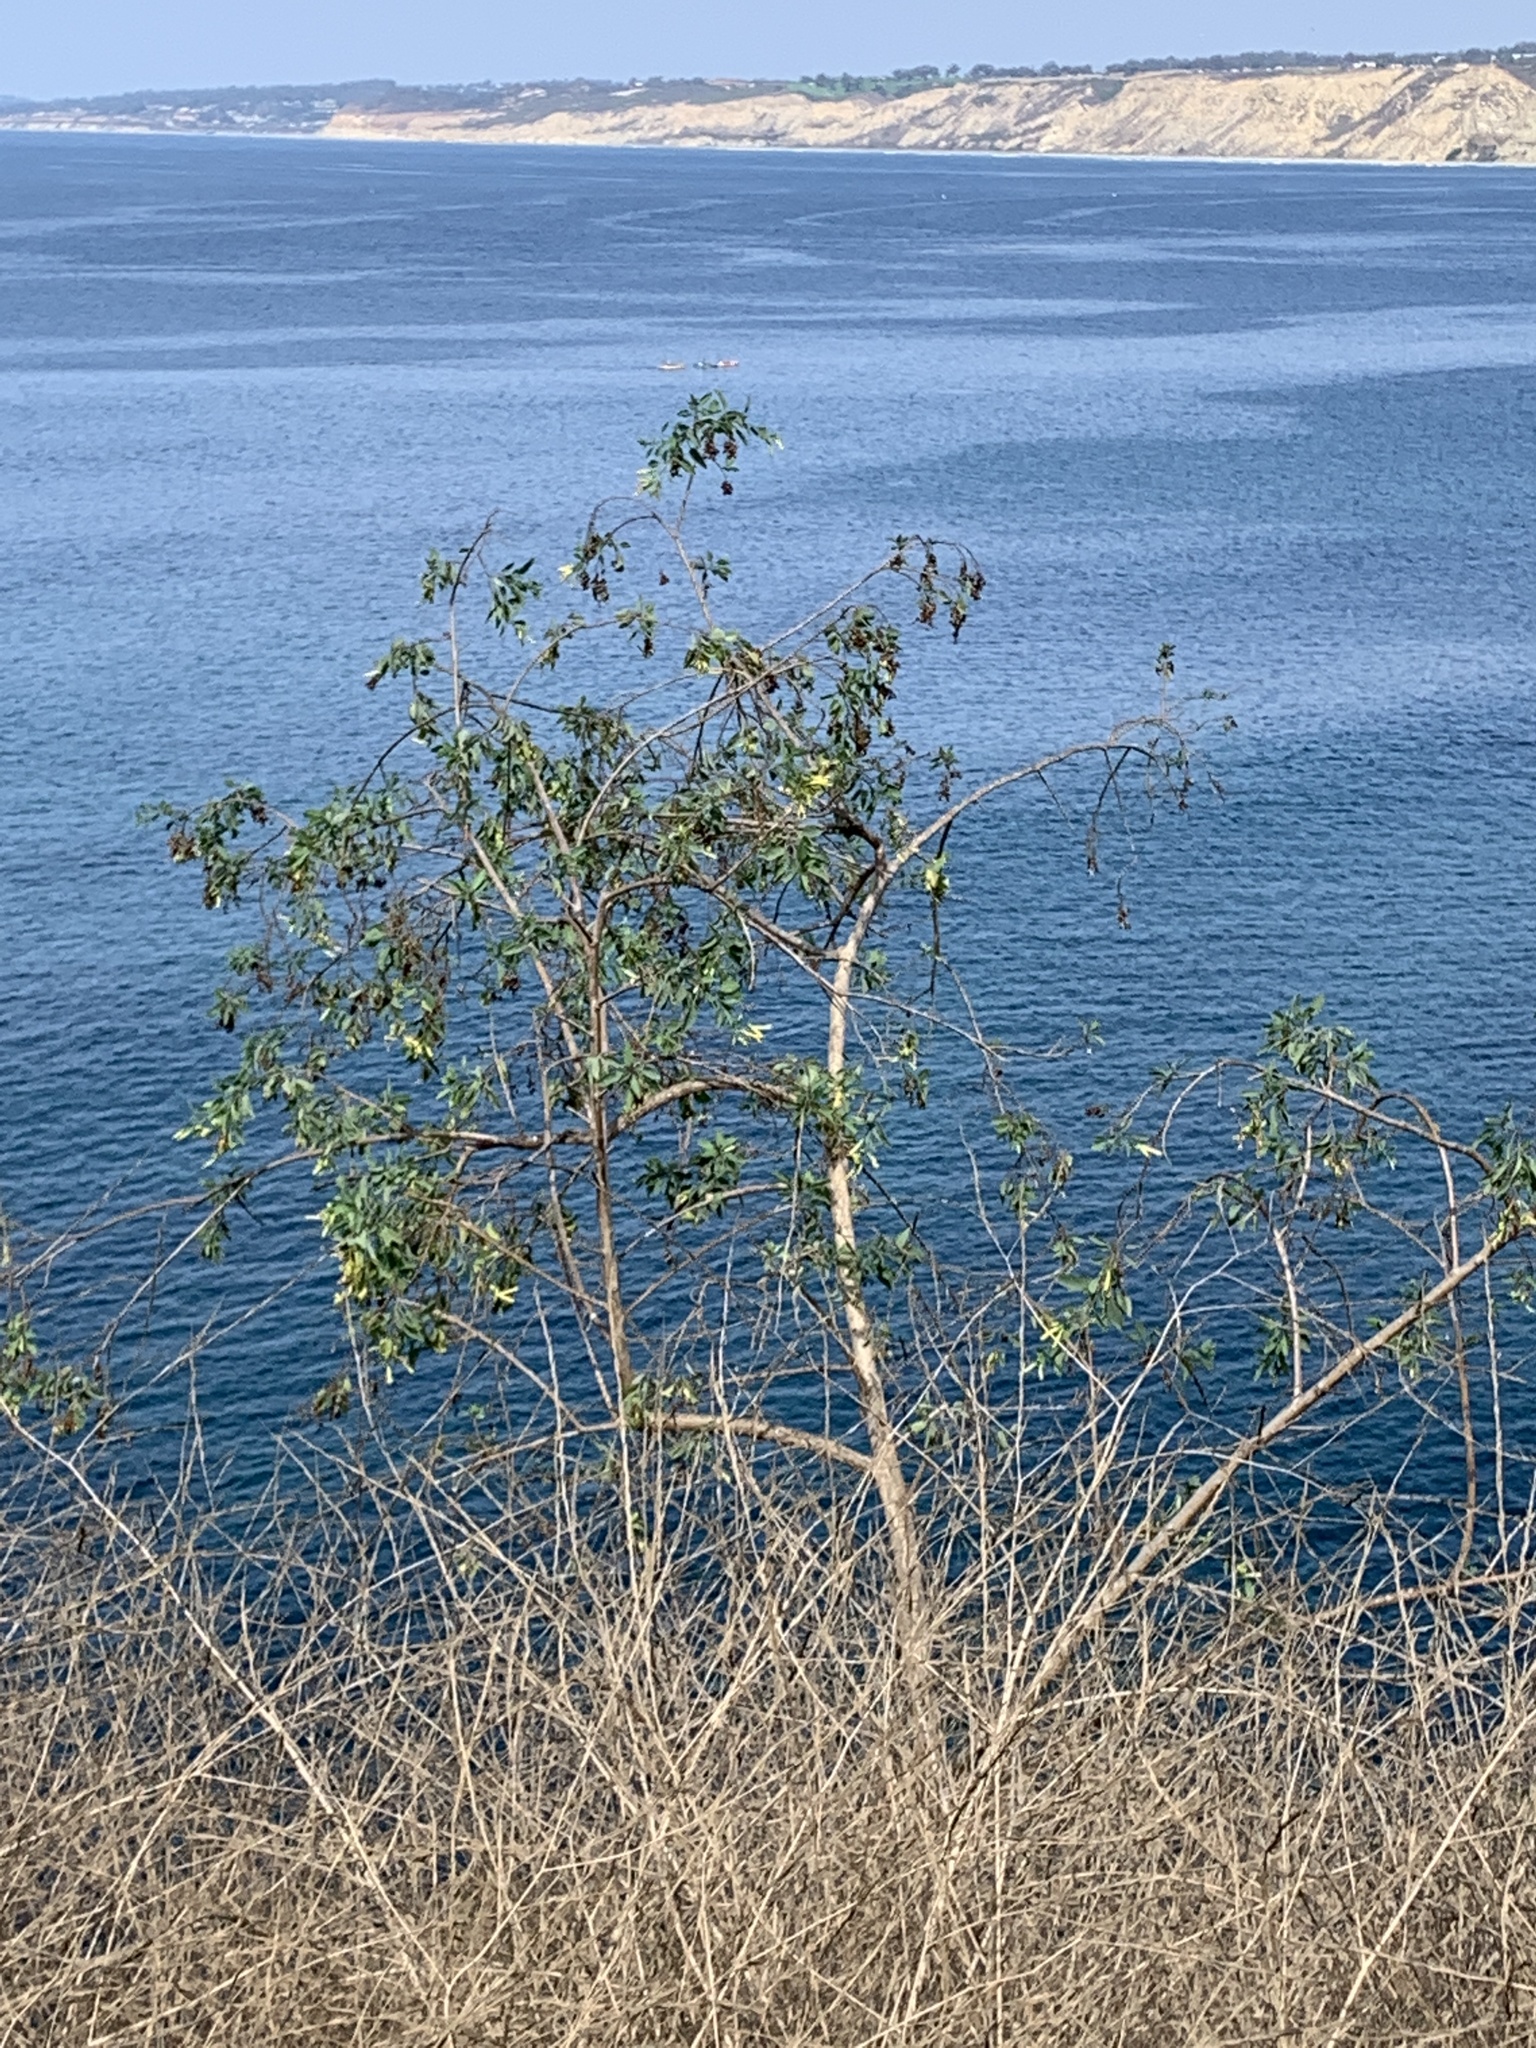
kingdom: Plantae
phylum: Tracheophyta
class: Magnoliopsida
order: Solanales
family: Solanaceae
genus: Nicotiana
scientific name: Nicotiana glauca
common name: Tree tobacco
